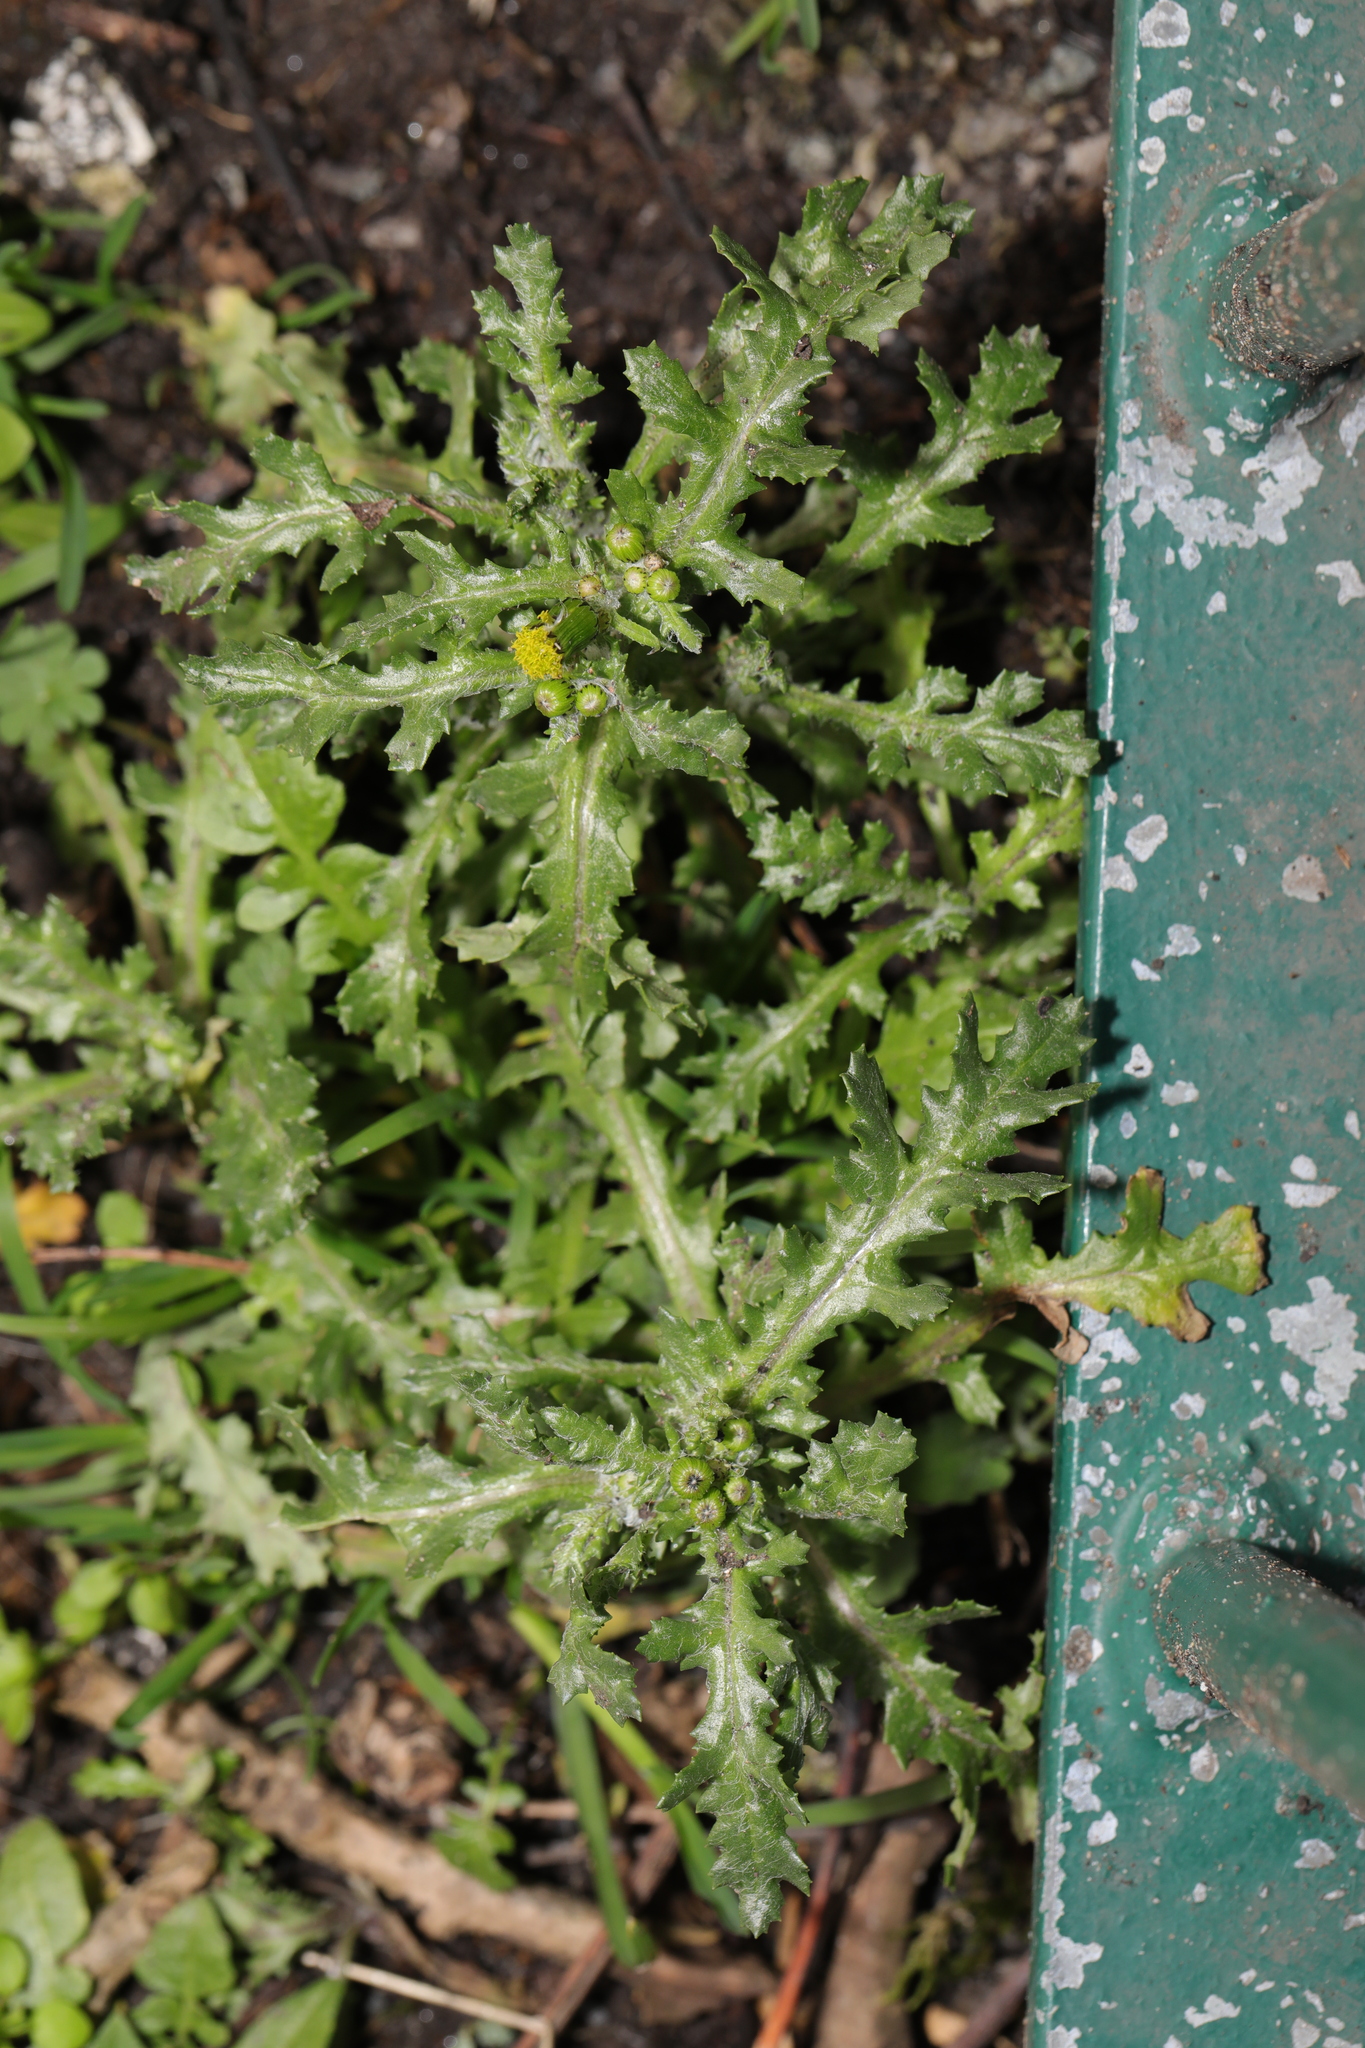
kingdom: Plantae
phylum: Tracheophyta
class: Magnoliopsida
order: Asterales
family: Asteraceae
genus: Senecio
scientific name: Senecio vulgaris
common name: Old-man-in-the-spring
